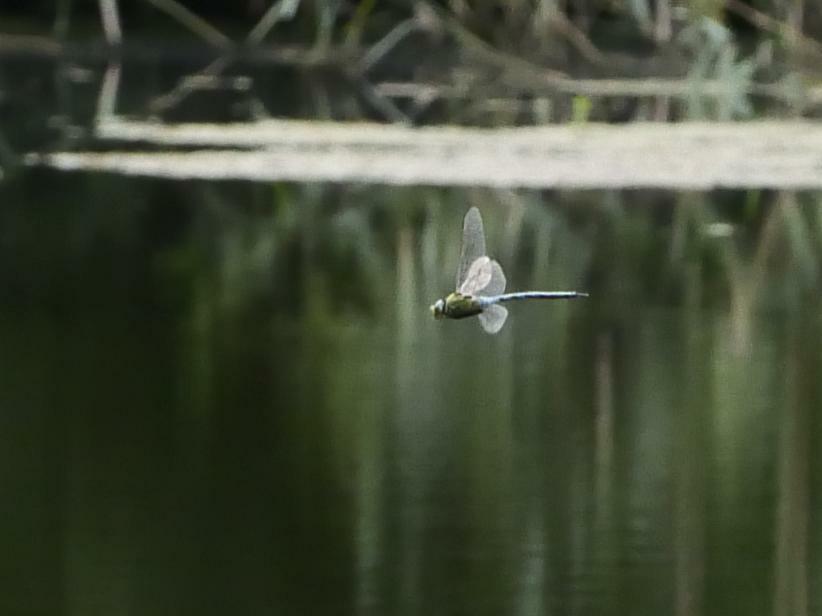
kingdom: Animalia
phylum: Arthropoda
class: Insecta
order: Odonata
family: Aeshnidae
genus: Anax
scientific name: Anax imperator
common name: Emperor dragonfly
